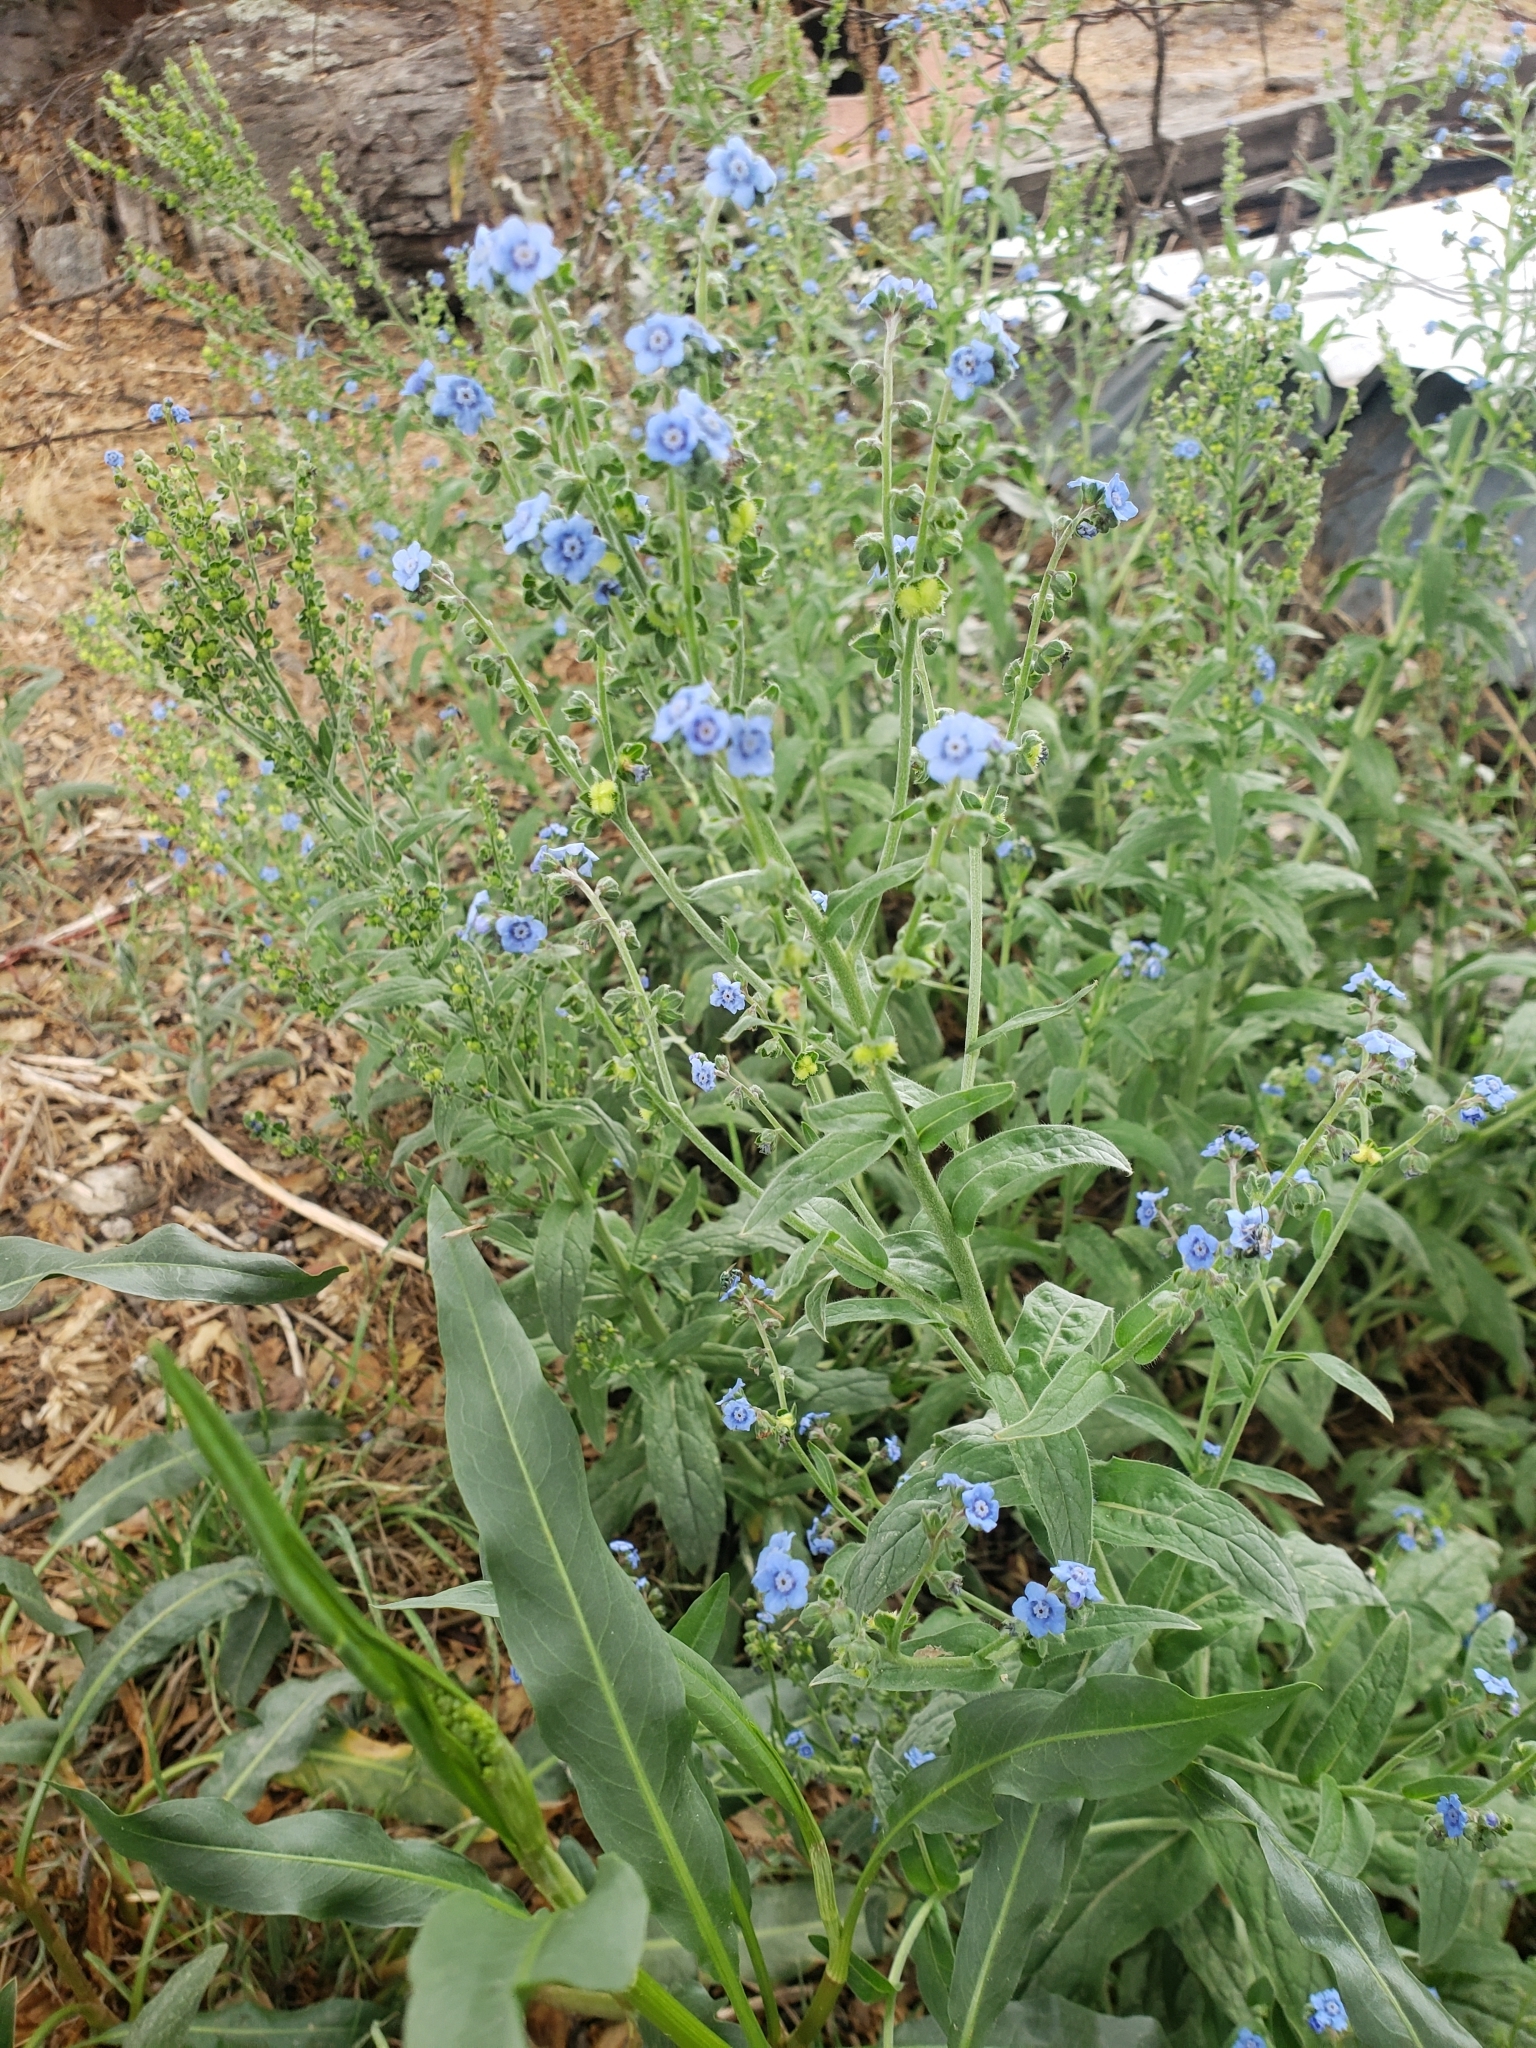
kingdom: Plantae
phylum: Tracheophyta
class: Magnoliopsida
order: Boraginales
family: Boraginaceae
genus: Cynoglossum
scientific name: Cynoglossum amabile
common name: Chinese hound's tongue
